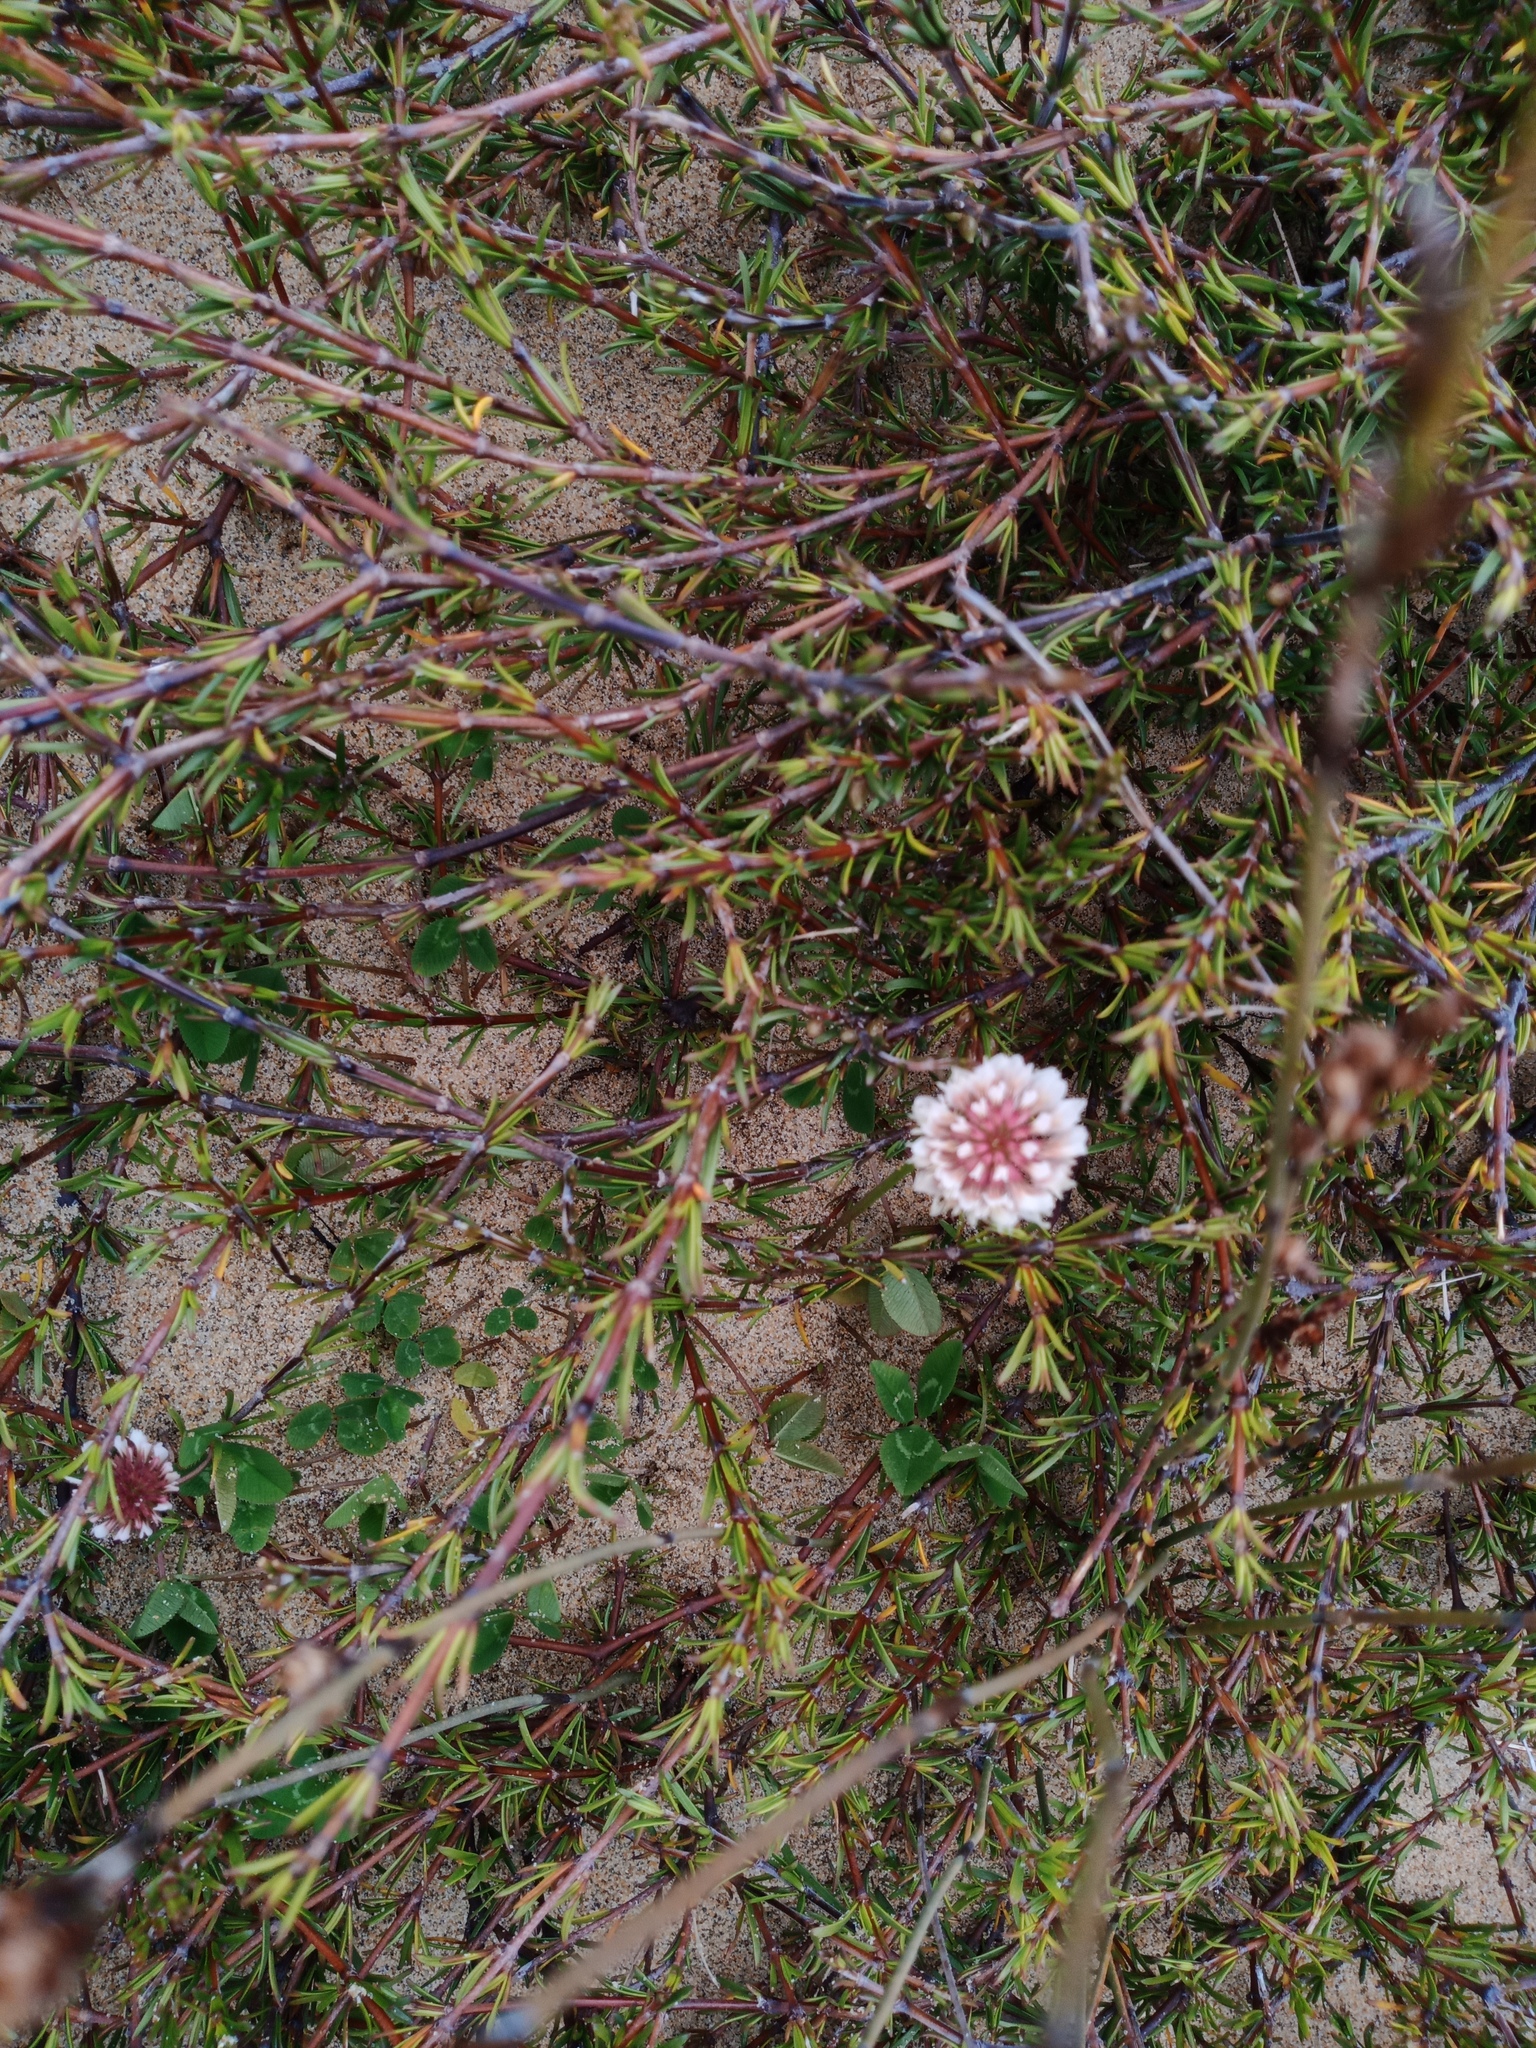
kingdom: Plantae
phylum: Tracheophyta
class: Magnoliopsida
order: Fabales
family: Fabaceae
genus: Trifolium
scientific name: Trifolium repens
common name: White clover
